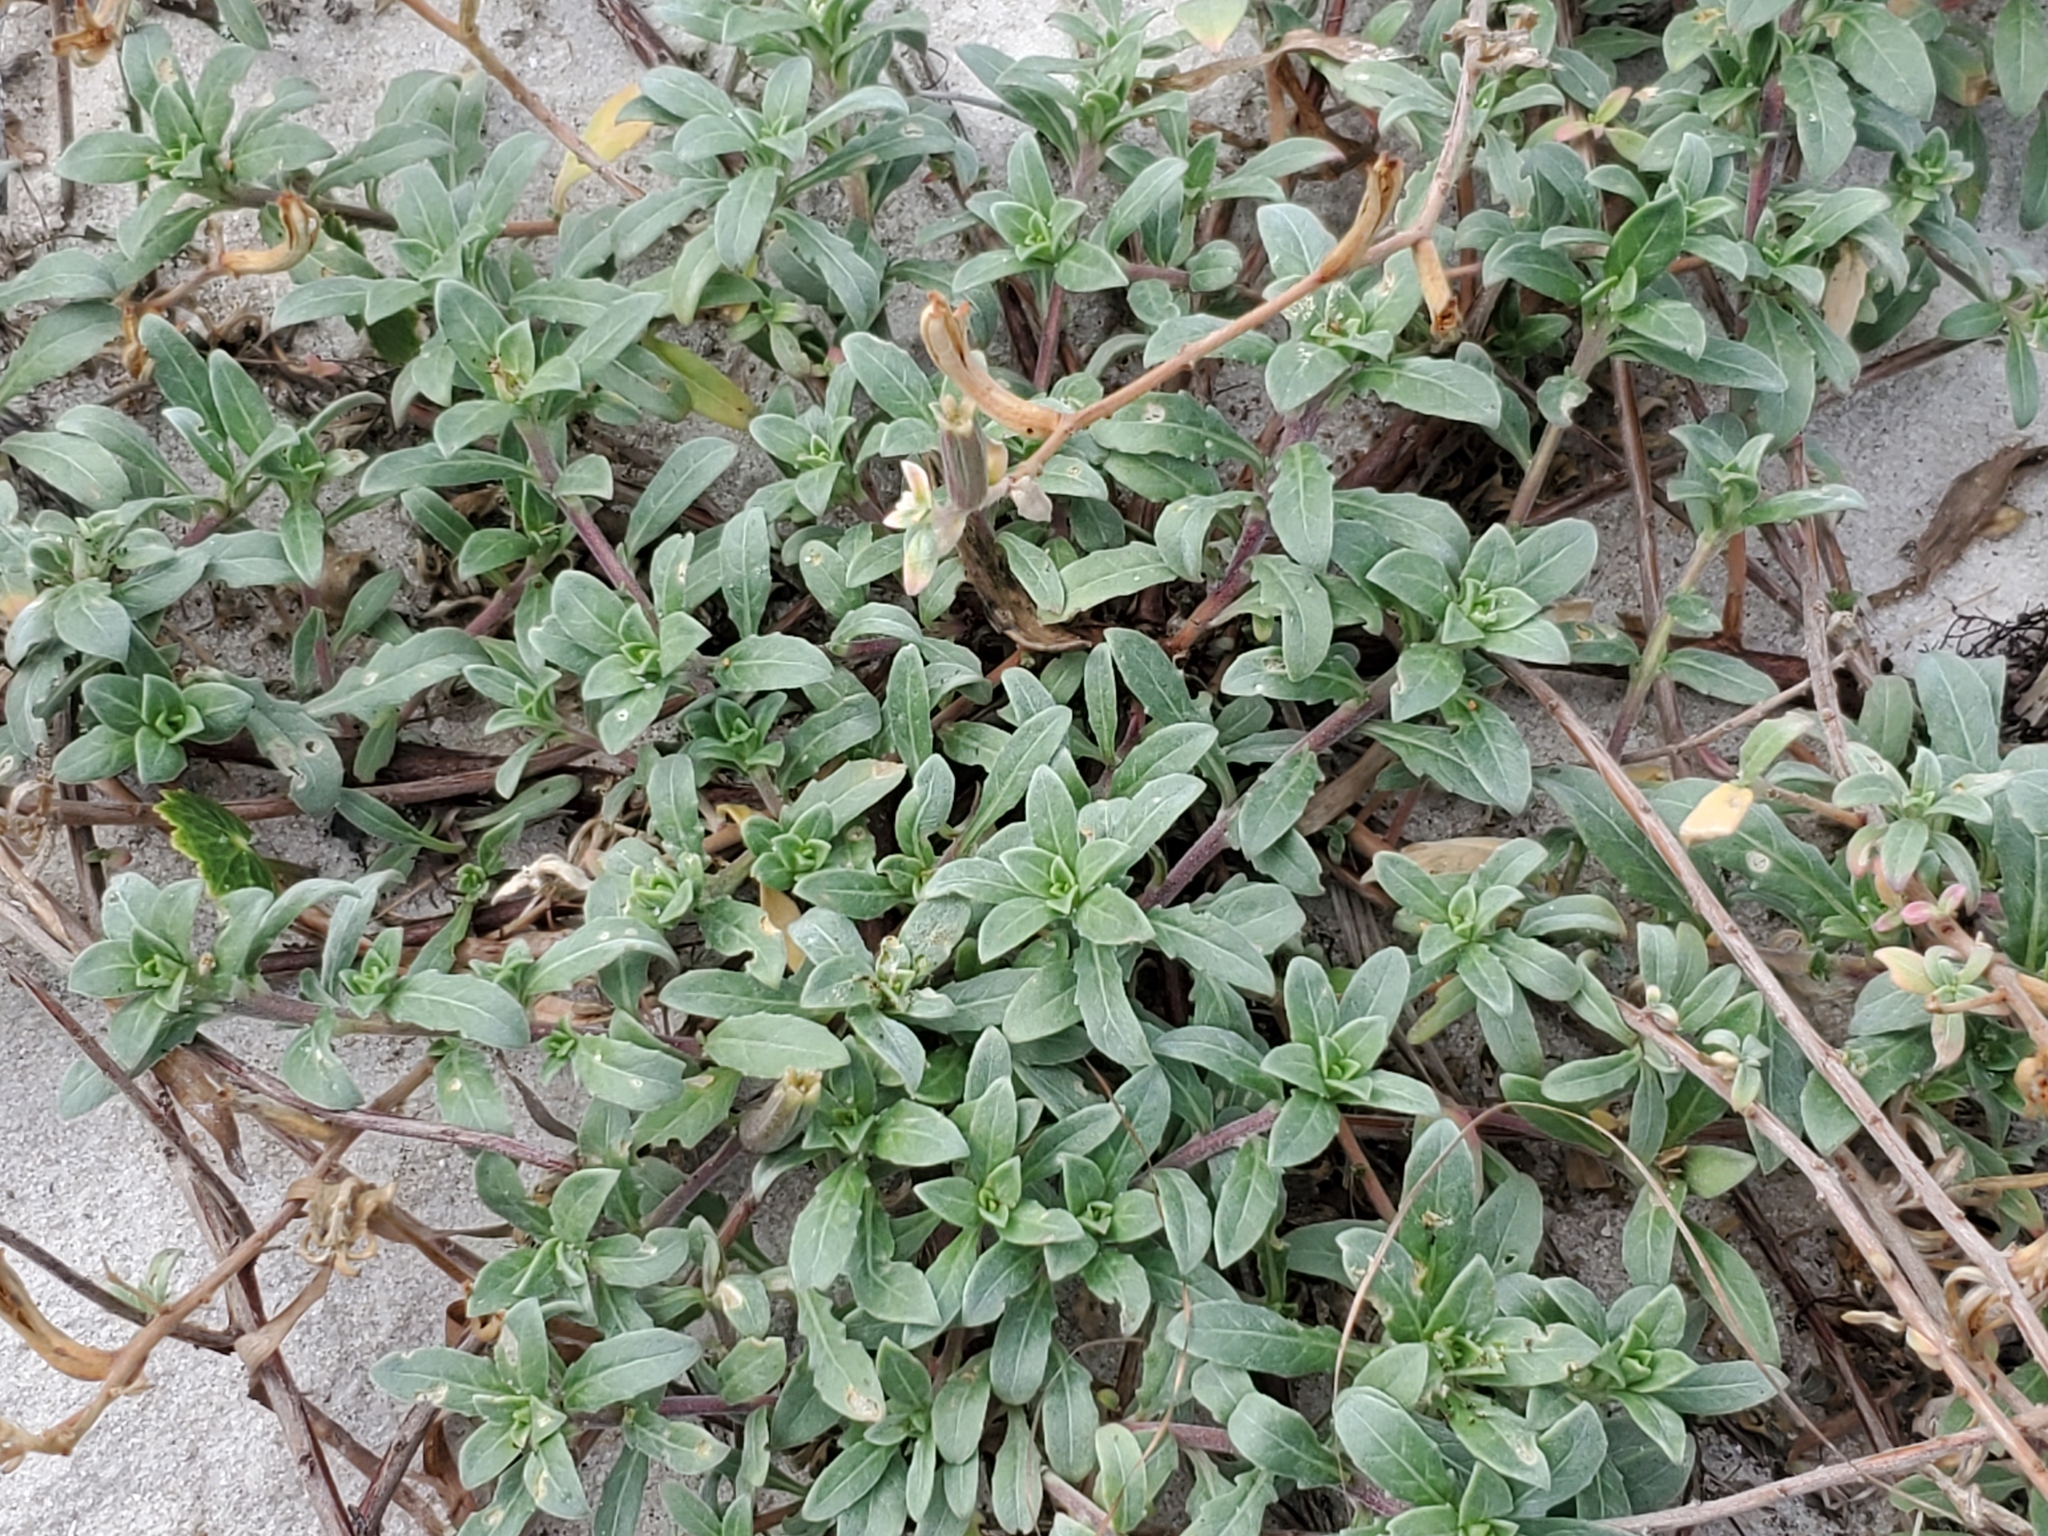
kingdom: Plantae
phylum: Tracheophyta
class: Magnoliopsida
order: Myrtales
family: Onagraceae
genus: Oenothera
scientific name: Oenothera humifusa
